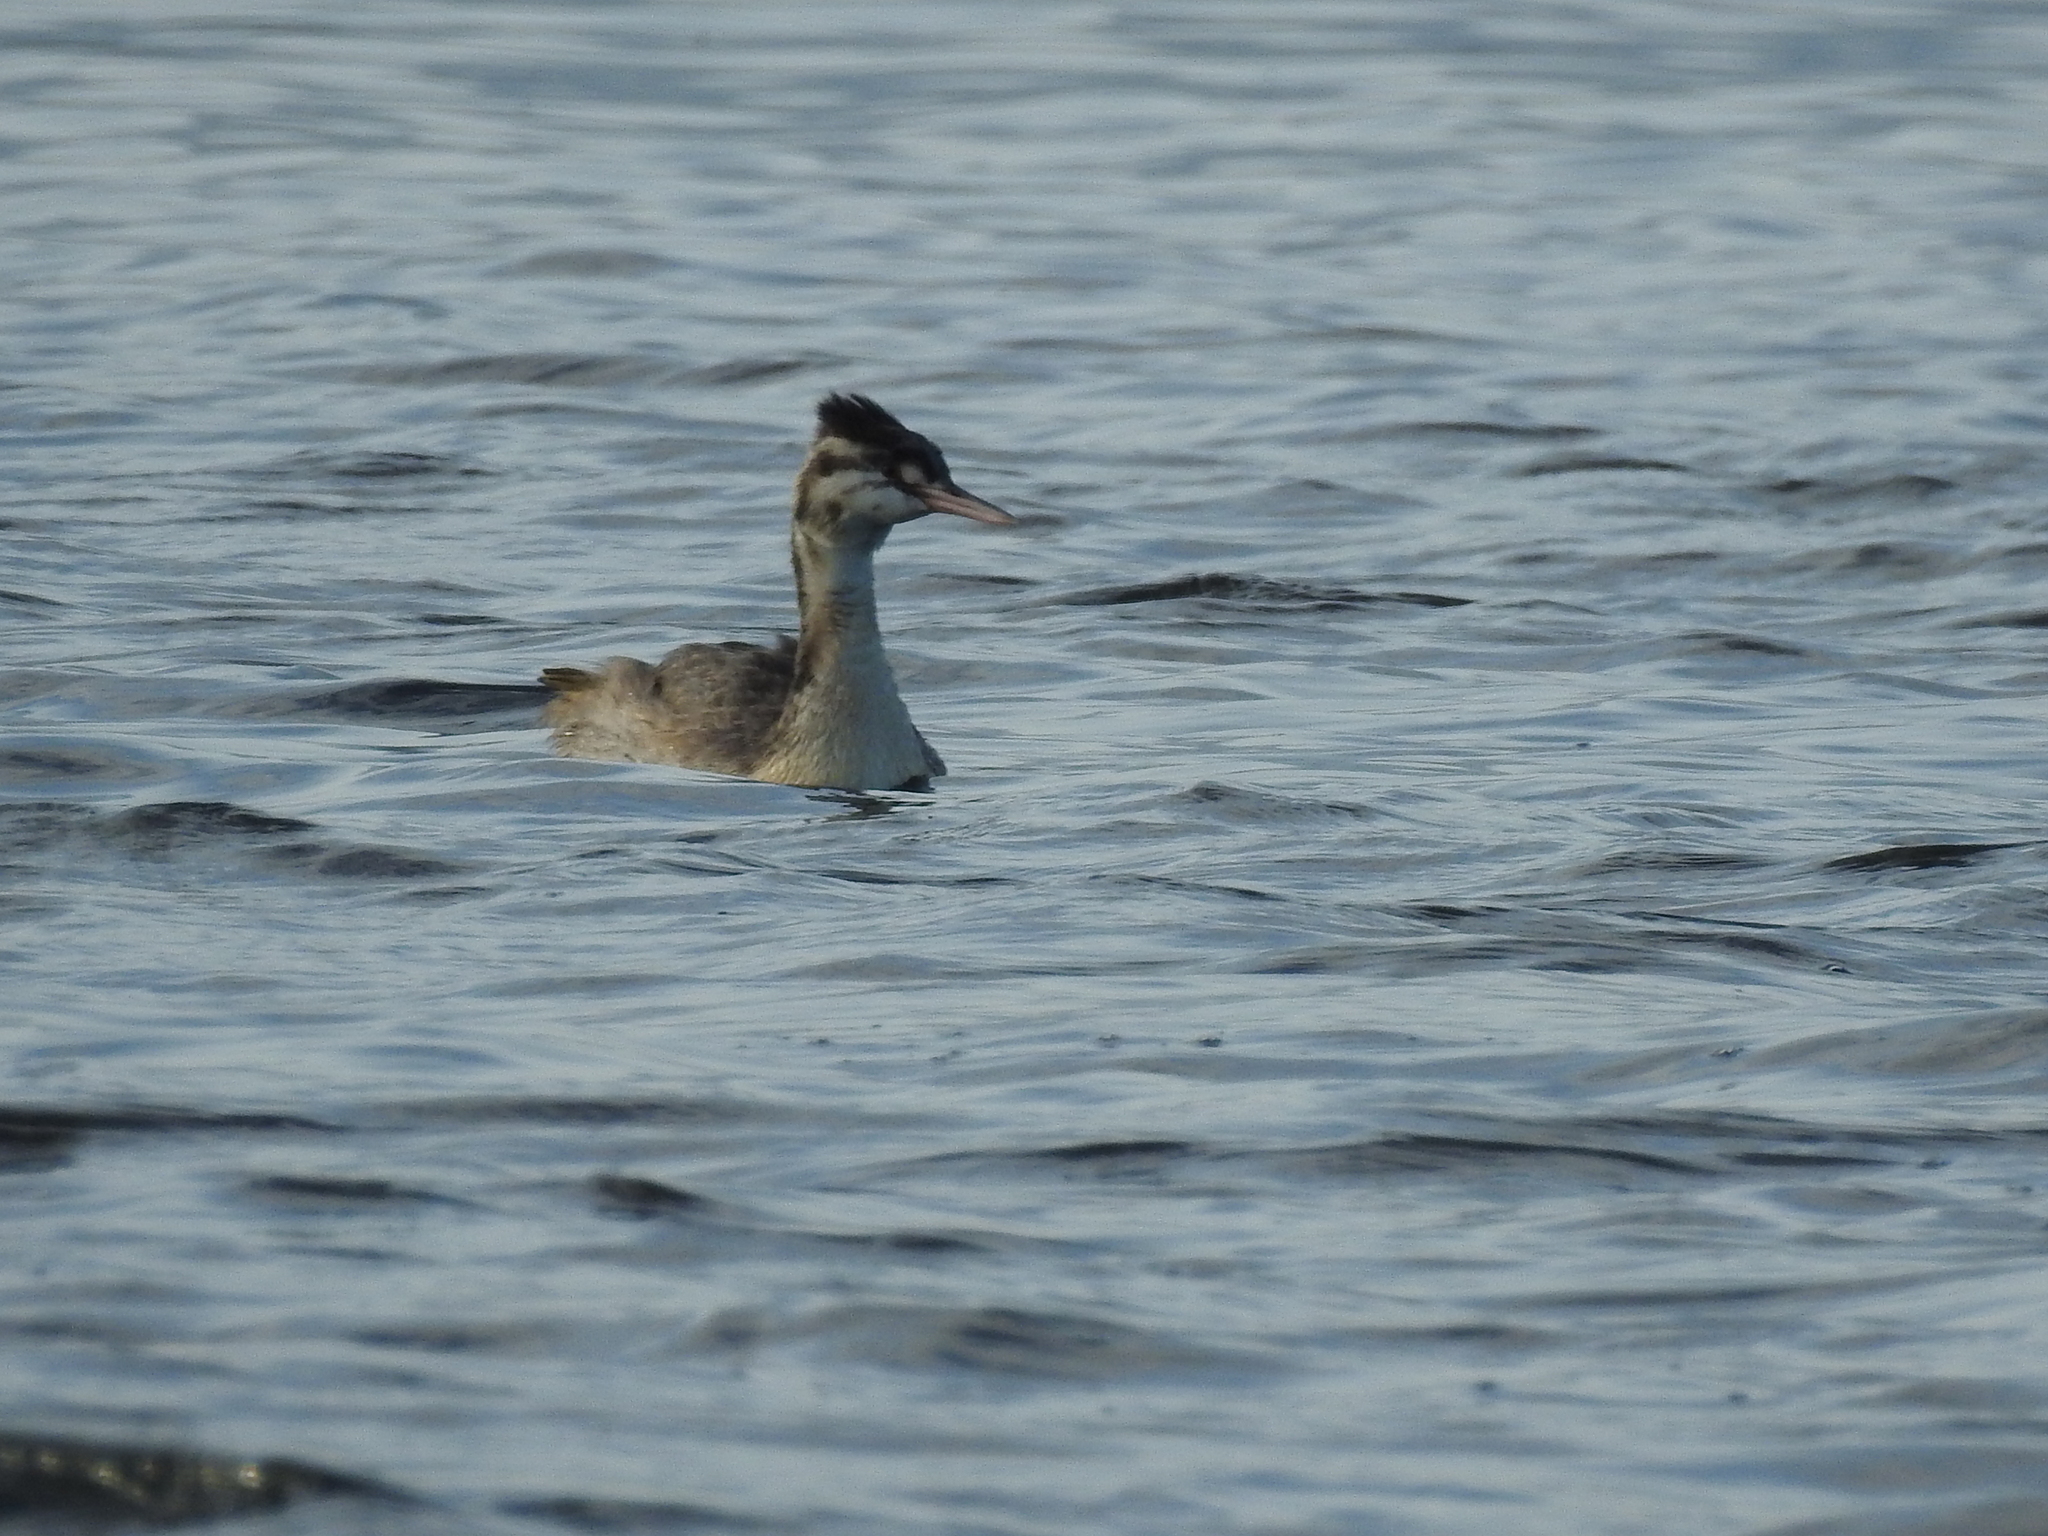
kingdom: Animalia
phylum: Chordata
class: Aves
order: Podicipediformes
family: Podicipedidae
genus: Podiceps
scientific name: Podiceps cristatus
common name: Great crested grebe
